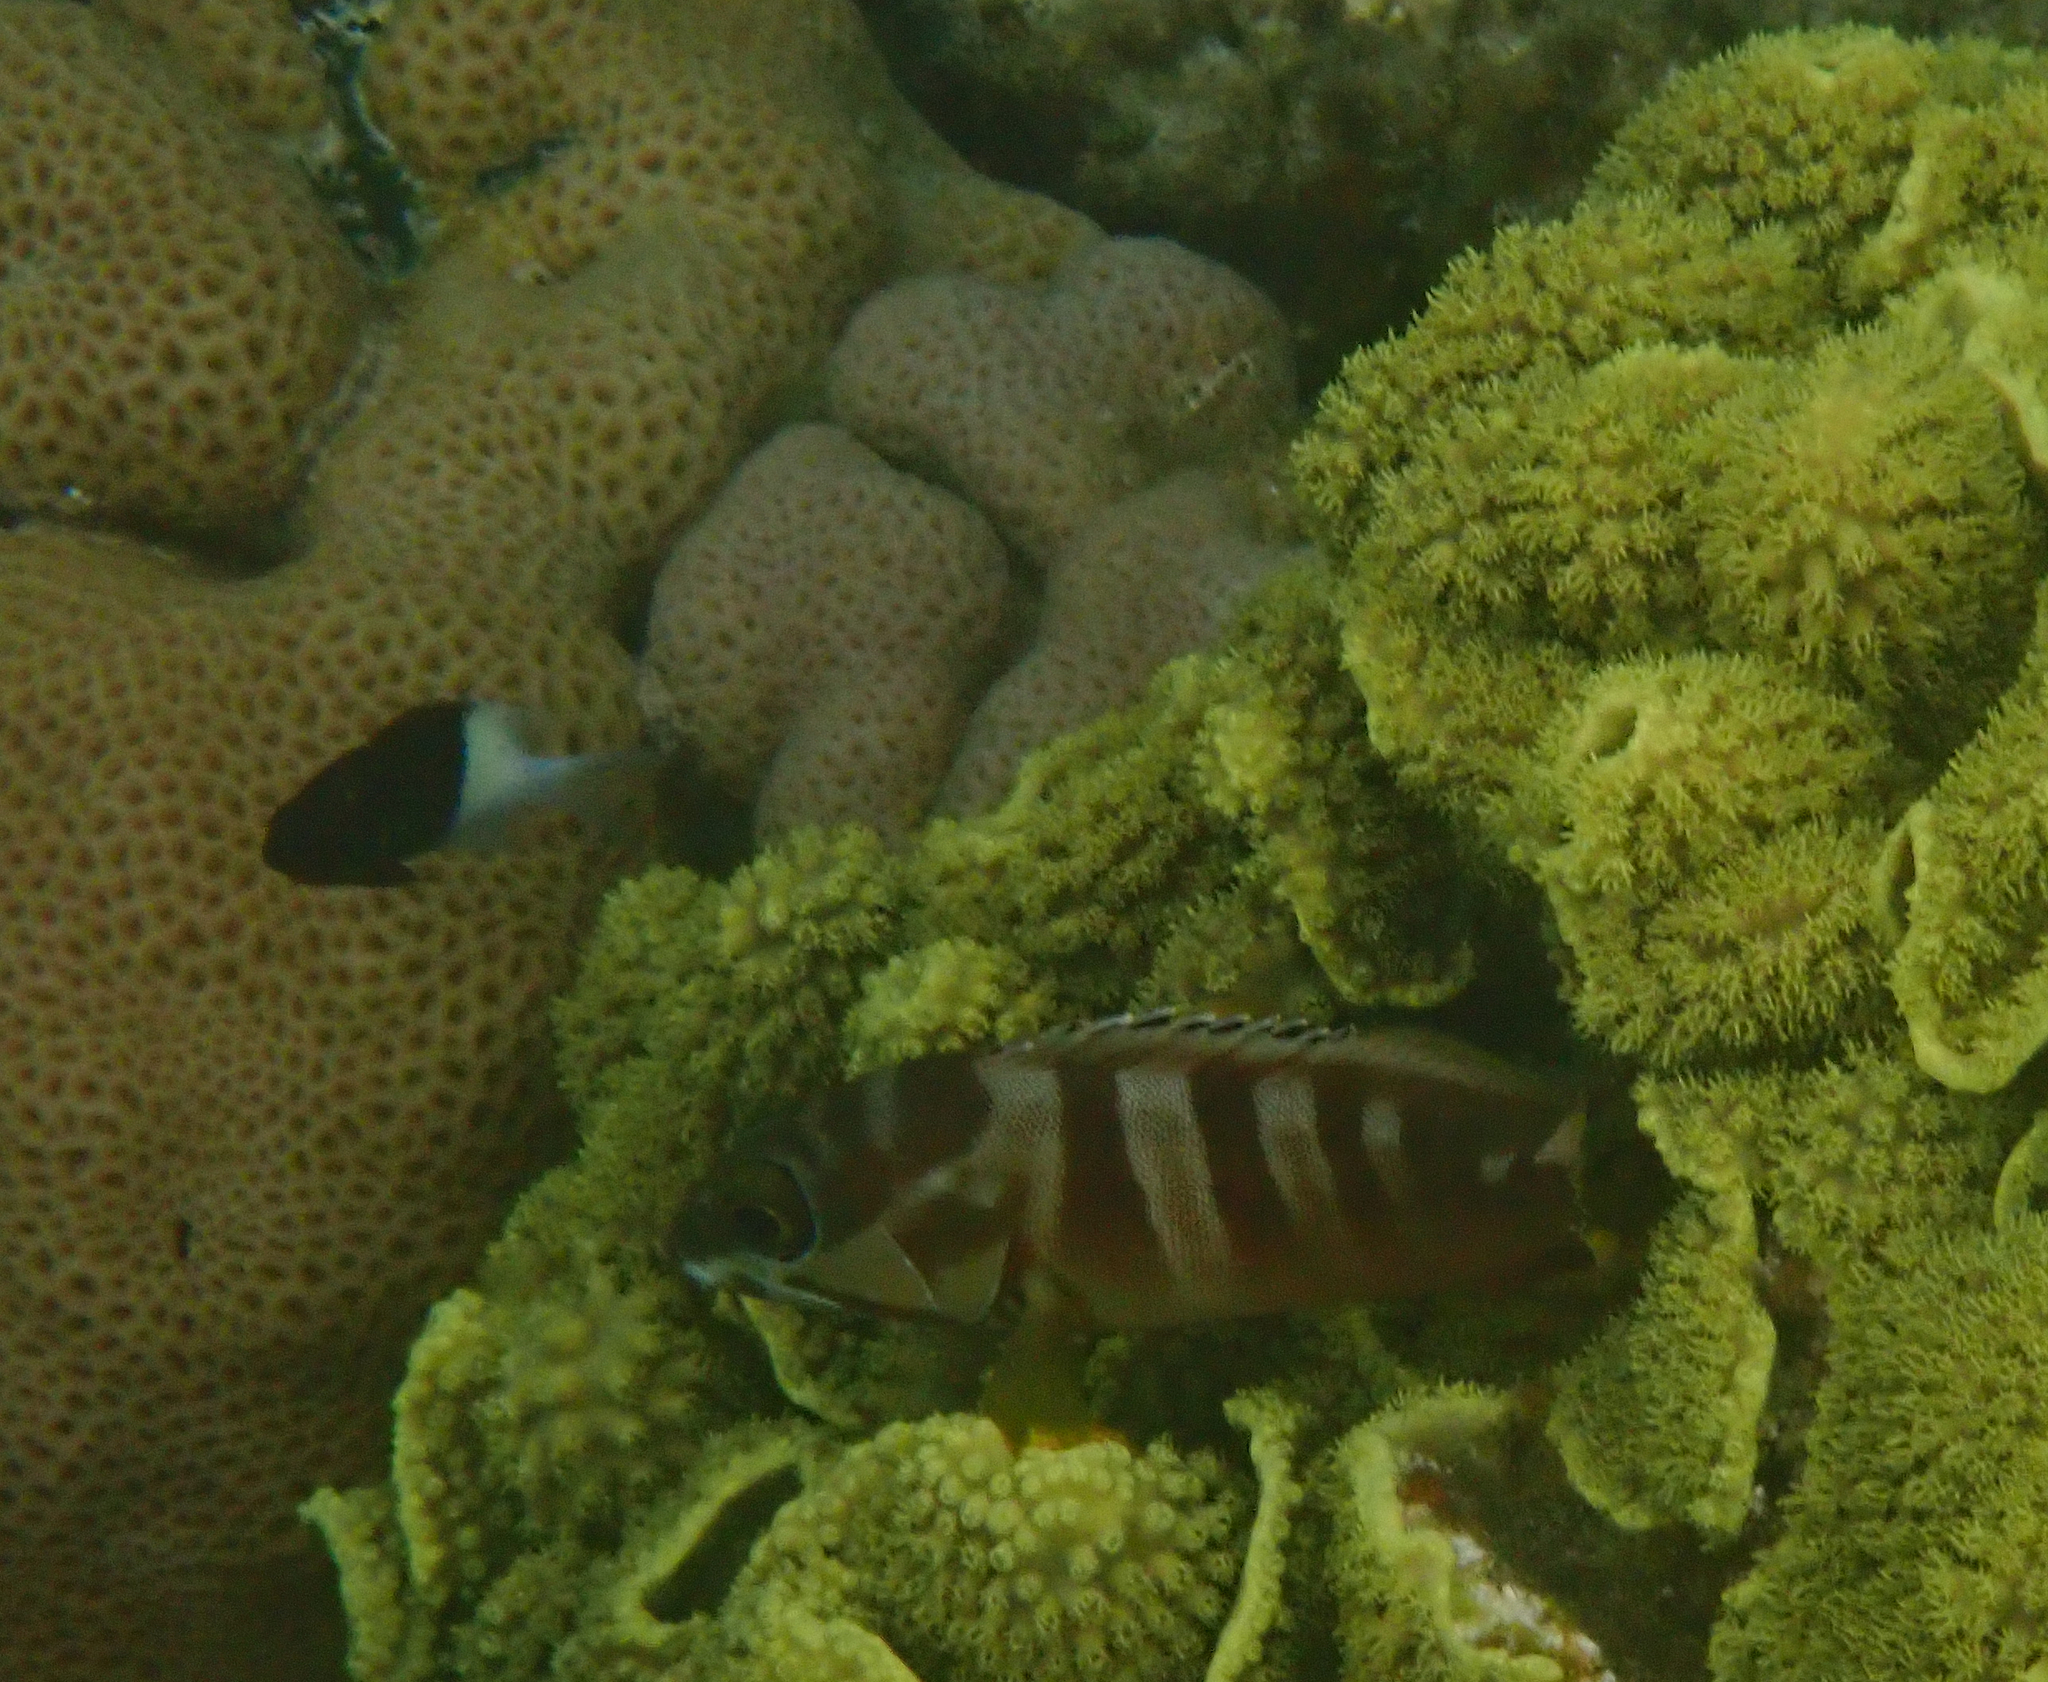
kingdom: Animalia
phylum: Chordata
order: Perciformes
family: Serranidae
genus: Epinephelus
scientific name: Epinephelus fasciatus
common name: Blacktip grouper
